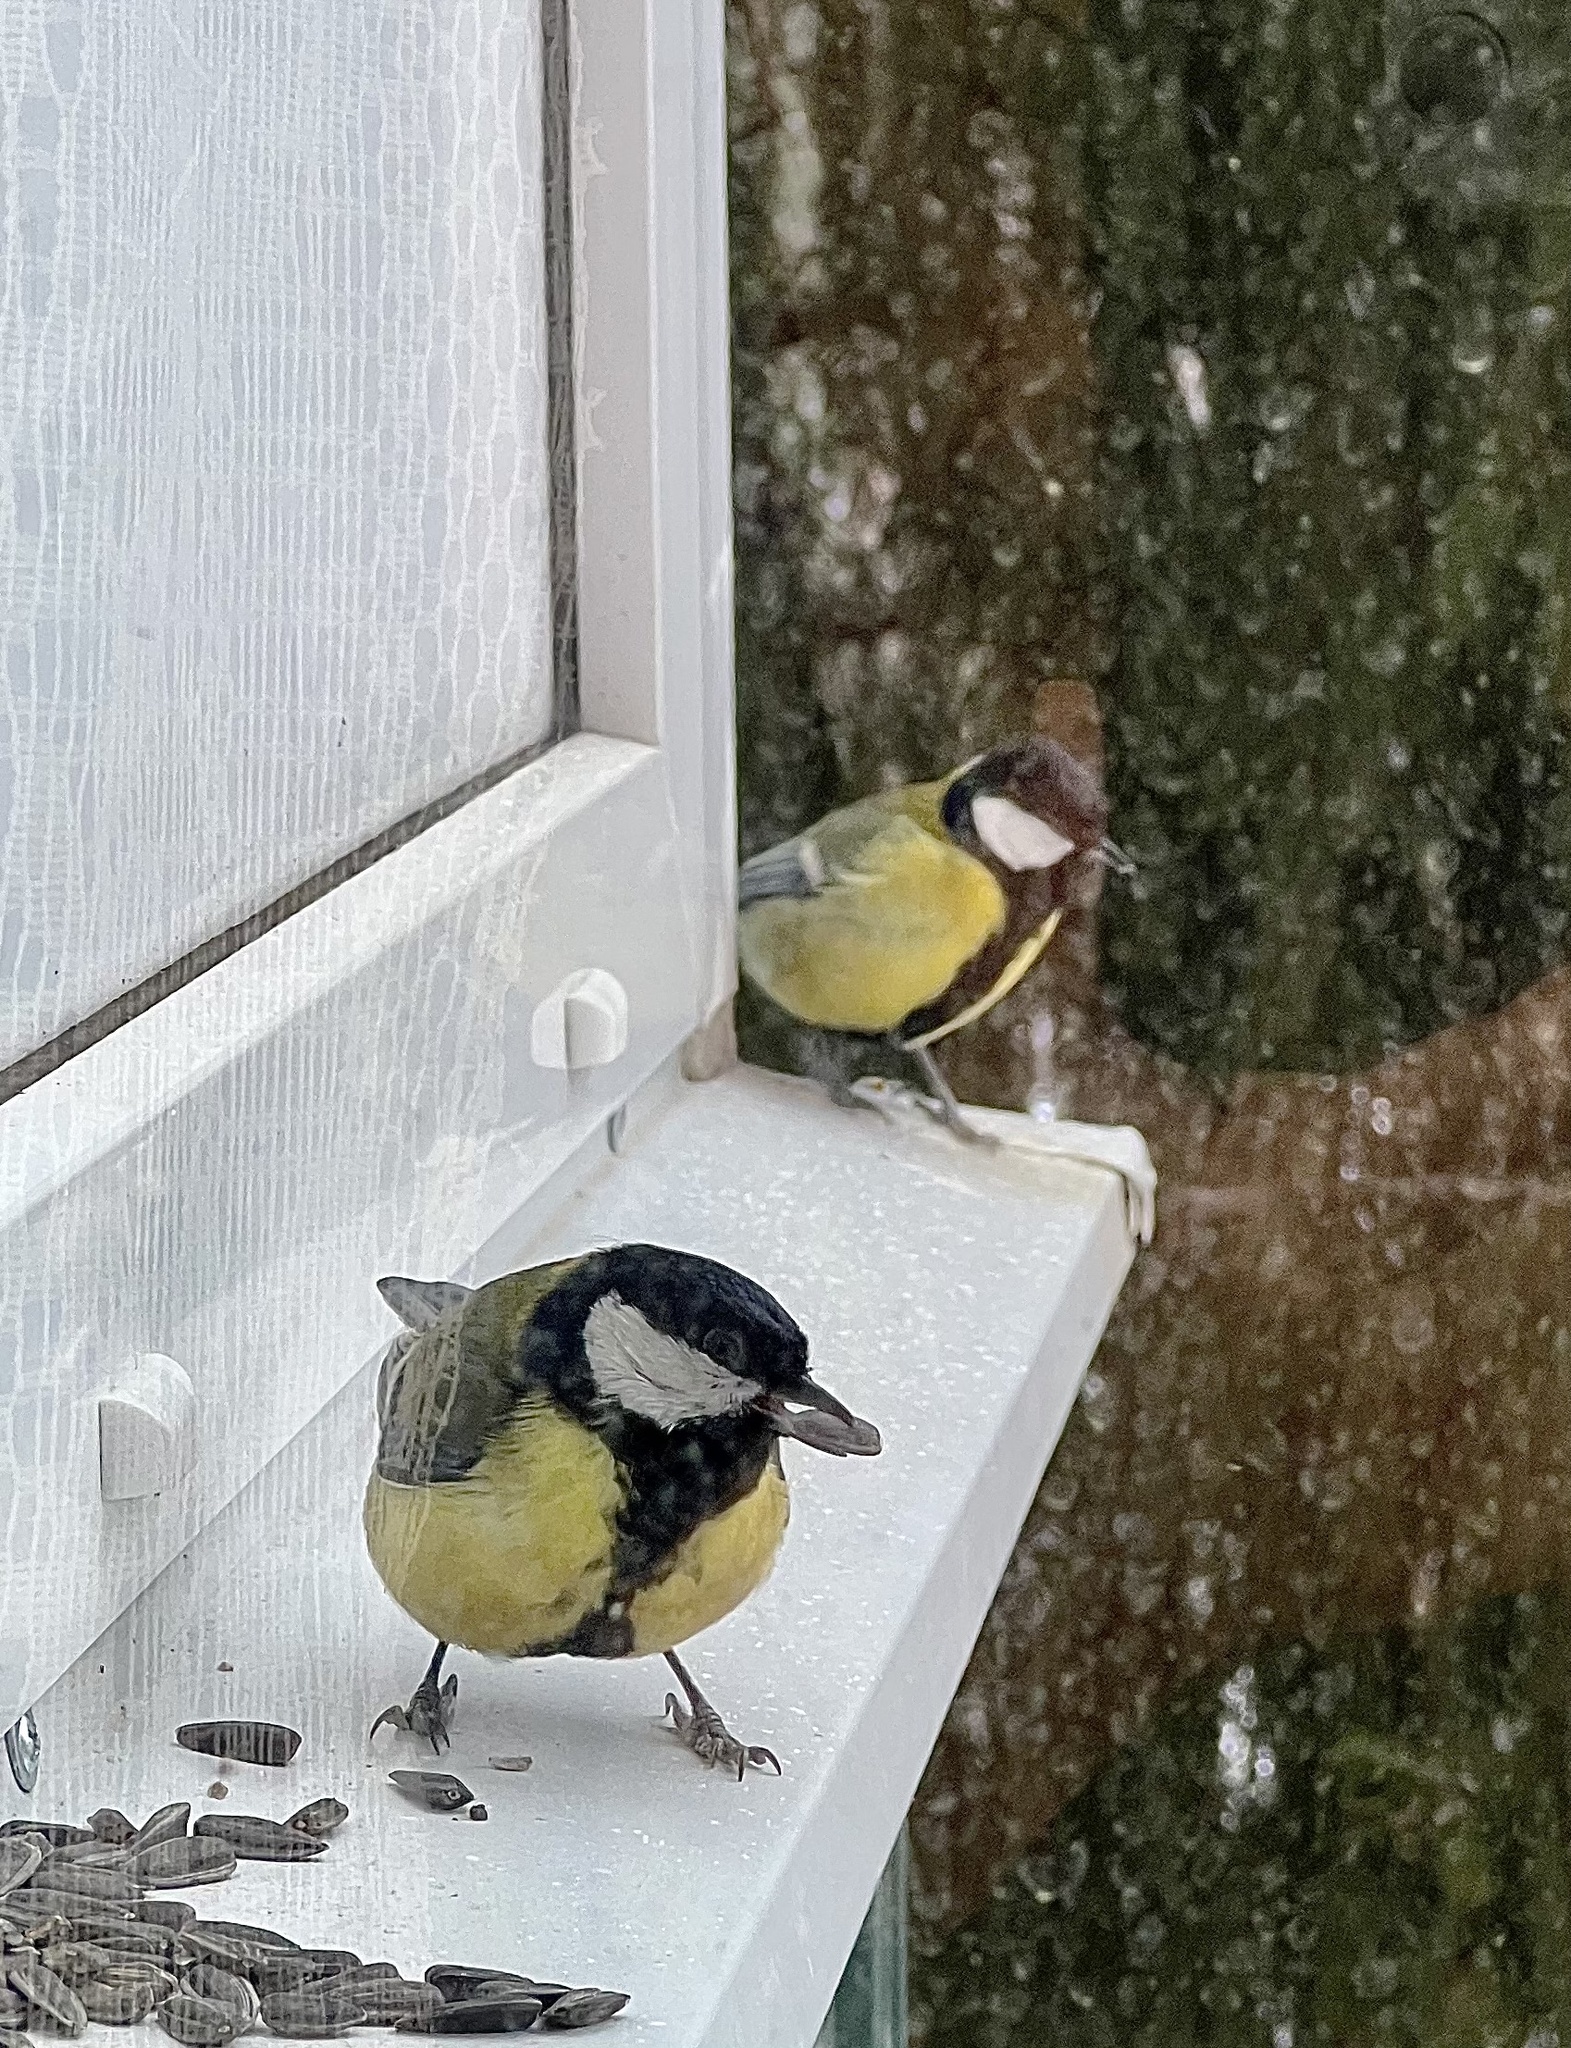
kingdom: Animalia
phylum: Chordata
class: Aves
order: Passeriformes
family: Paridae
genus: Parus
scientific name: Parus major
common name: Great tit
